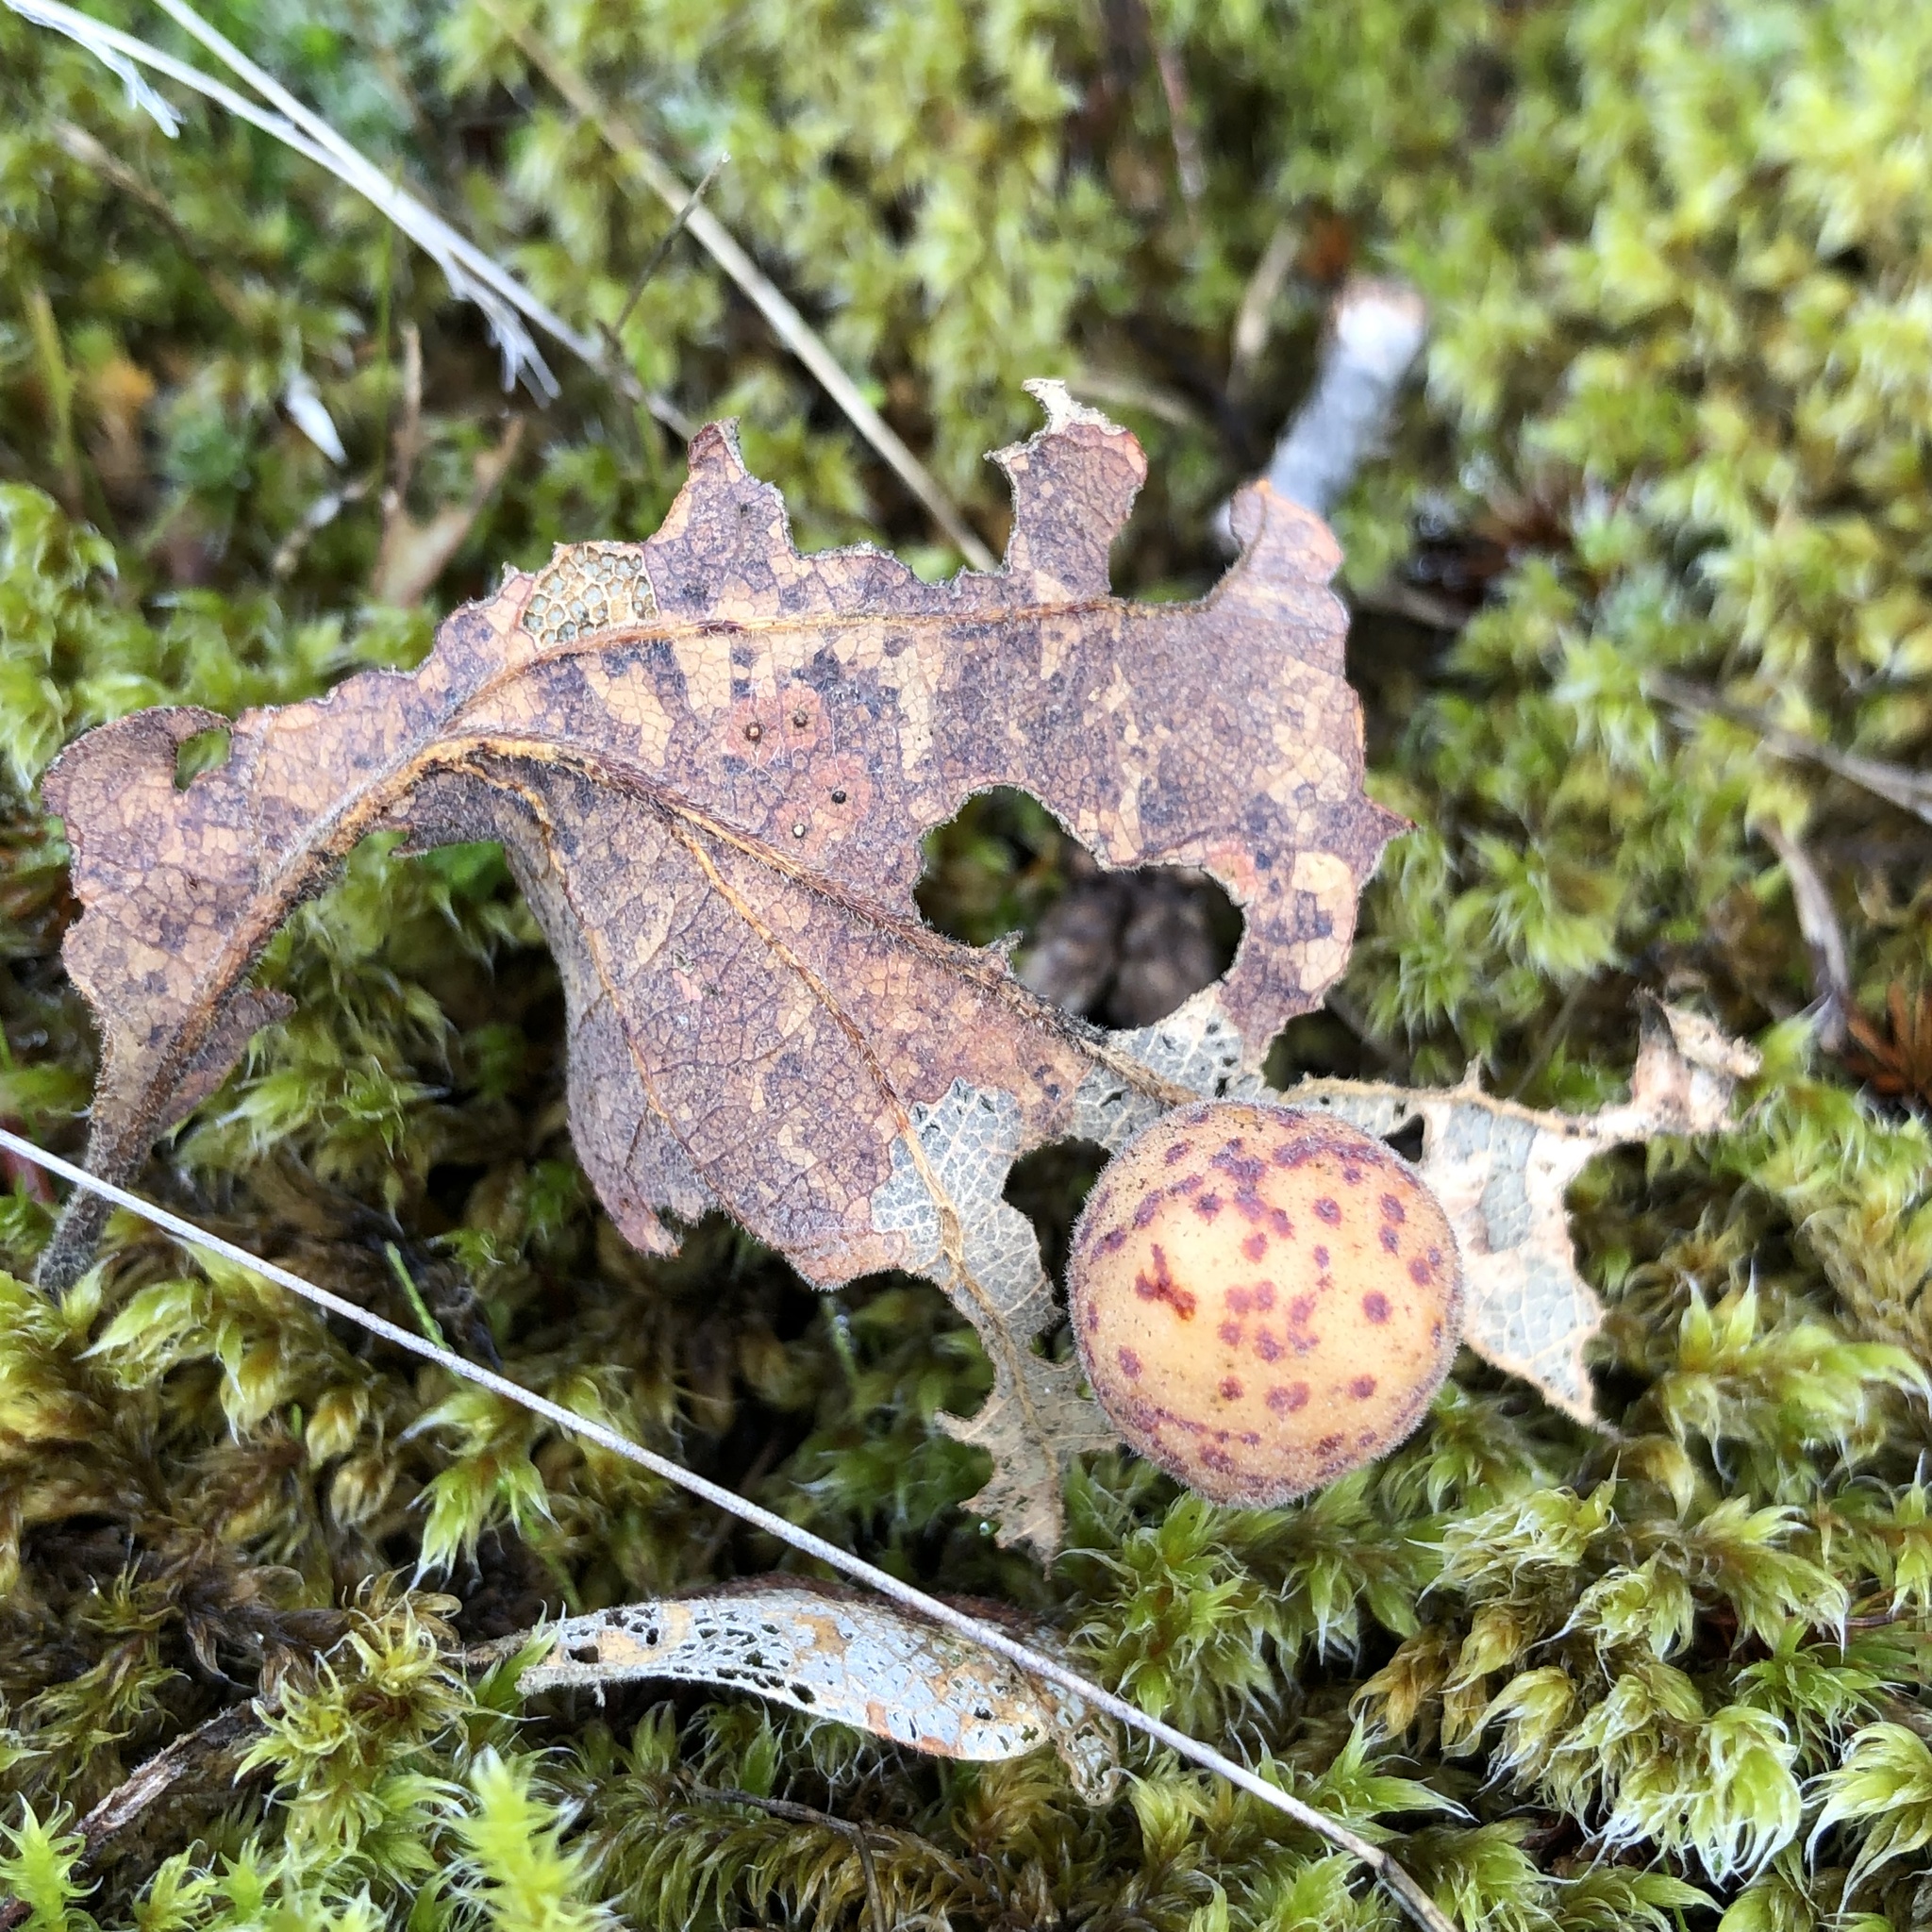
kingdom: Animalia
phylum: Arthropoda
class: Insecta
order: Hymenoptera
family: Cynipidae
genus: Cynips
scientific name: Cynips
